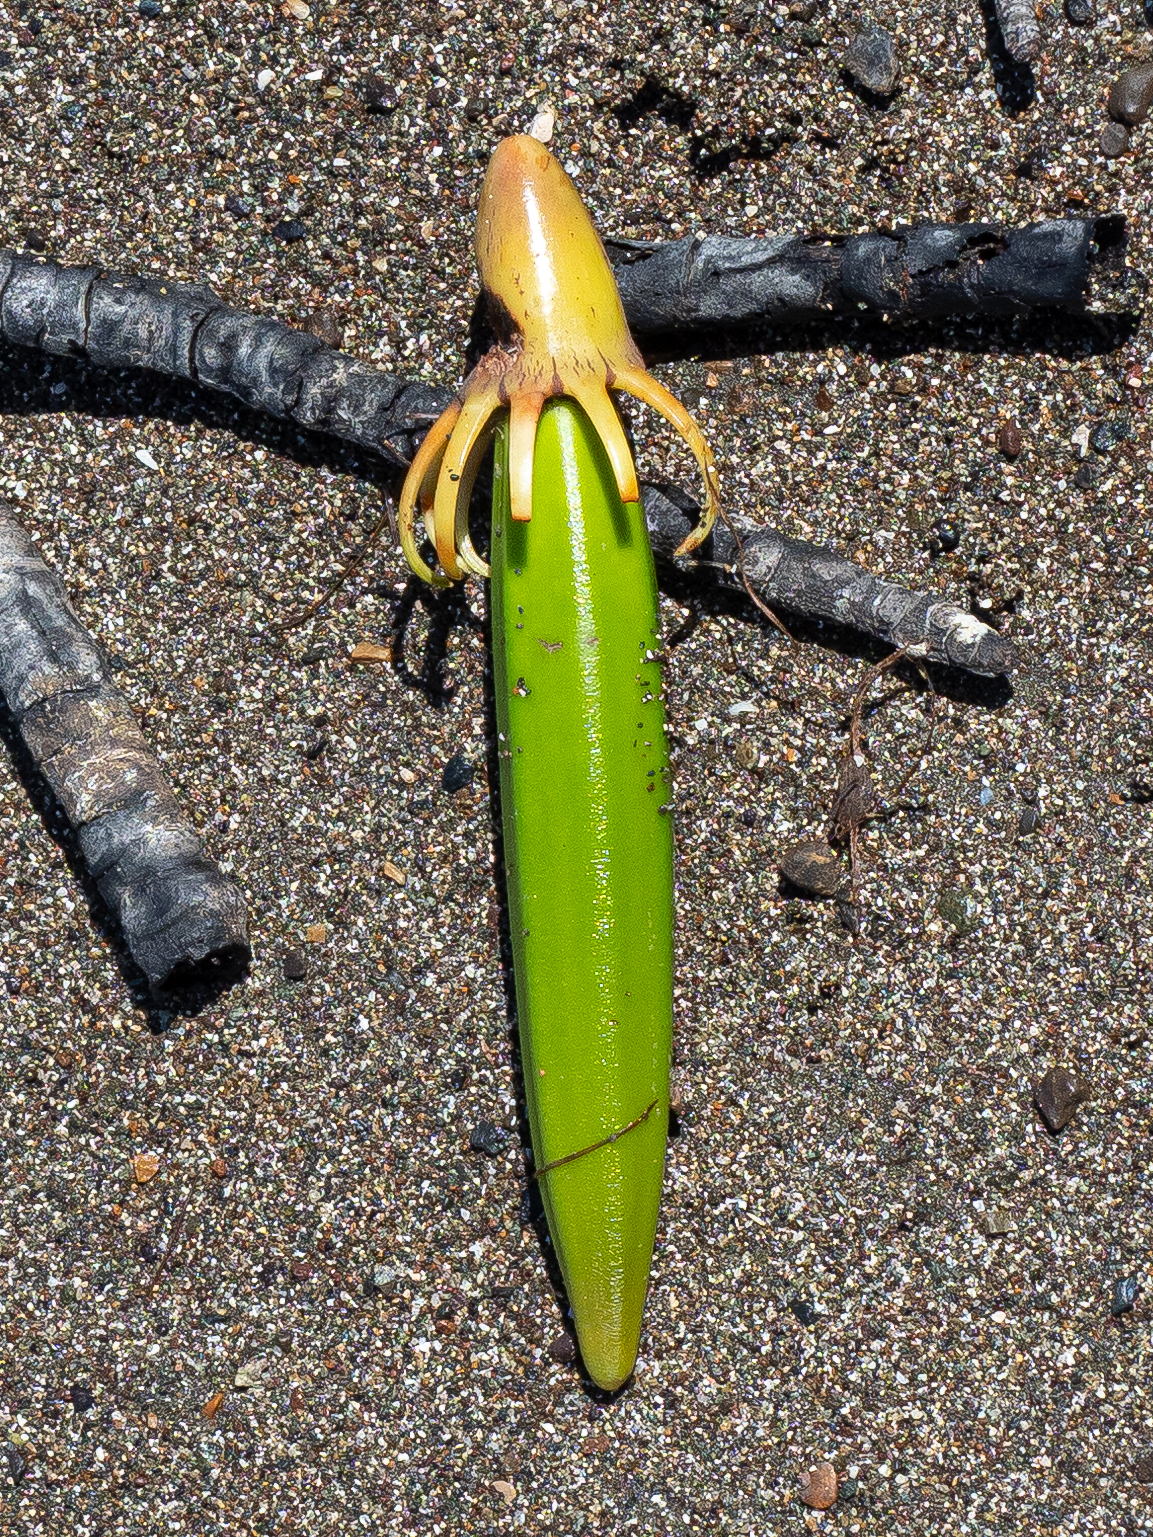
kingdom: Plantae
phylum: Tracheophyta
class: Magnoliopsida
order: Malpighiales
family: Rhizophoraceae
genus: Bruguiera
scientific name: Bruguiera gymnorhiza
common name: Oriental mangrove
